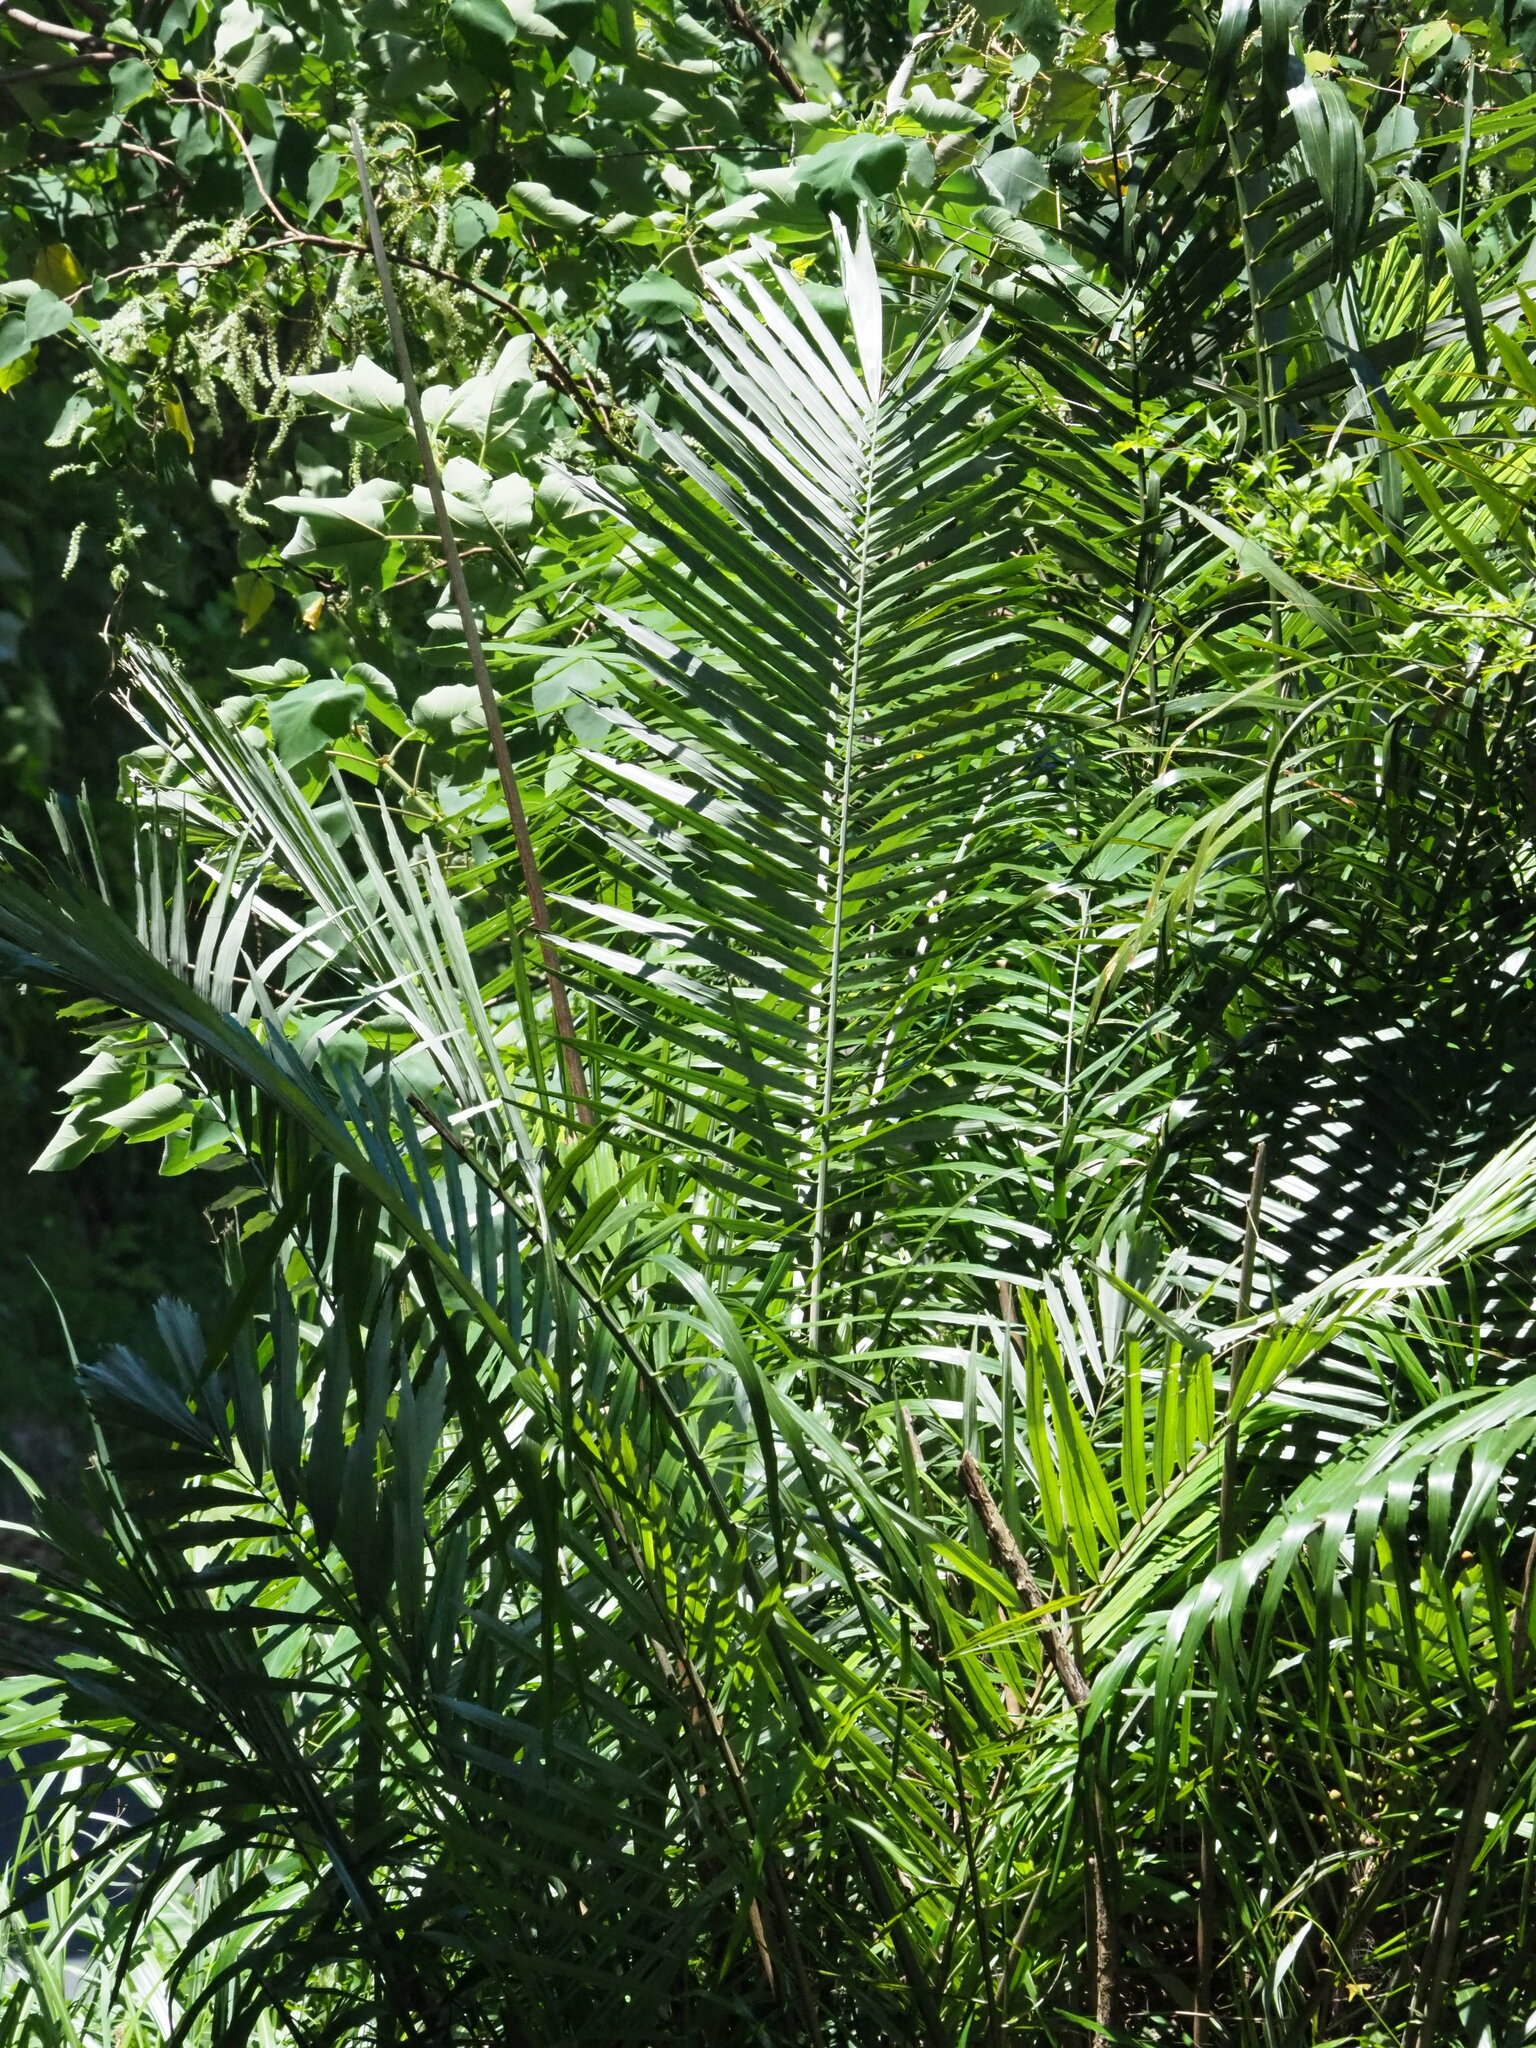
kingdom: Plantae
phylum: Tracheophyta
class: Liliopsida
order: Arecales
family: Arecaceae
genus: Arenga
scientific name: Arenga engleri
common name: Formosan sugar palm
